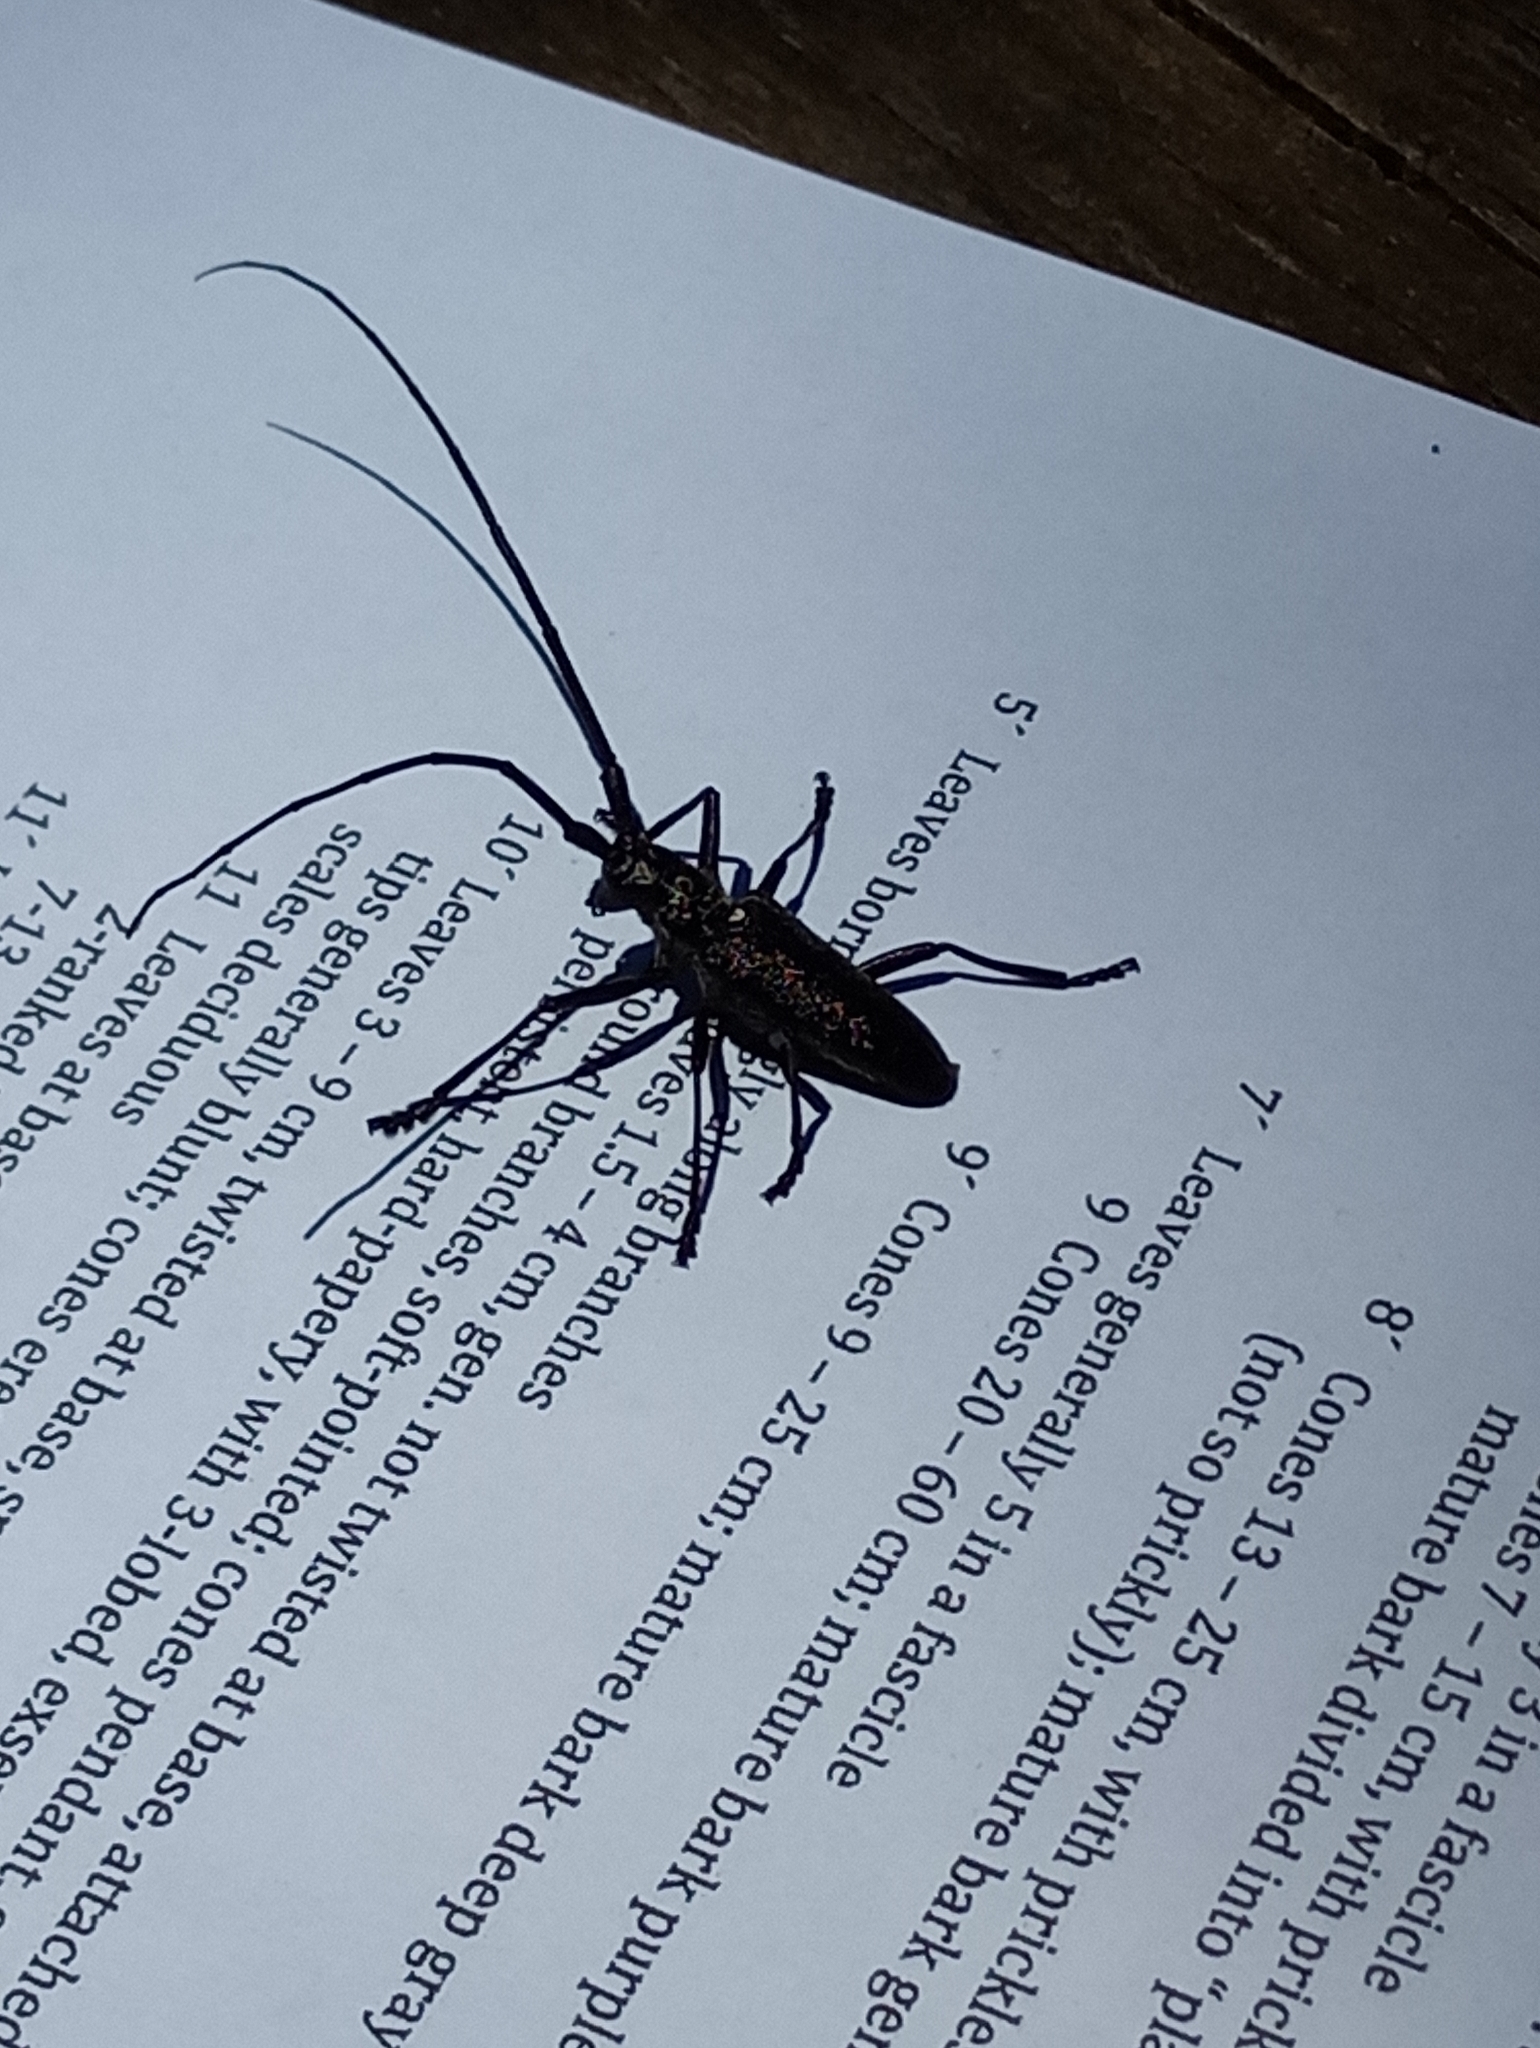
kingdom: Animalia
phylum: Arthropoda
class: Insecta
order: Coleoptera
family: Cerambycidae
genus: Monochamus
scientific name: Monochamus scutellatus
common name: White-spotted sawyer beetle
